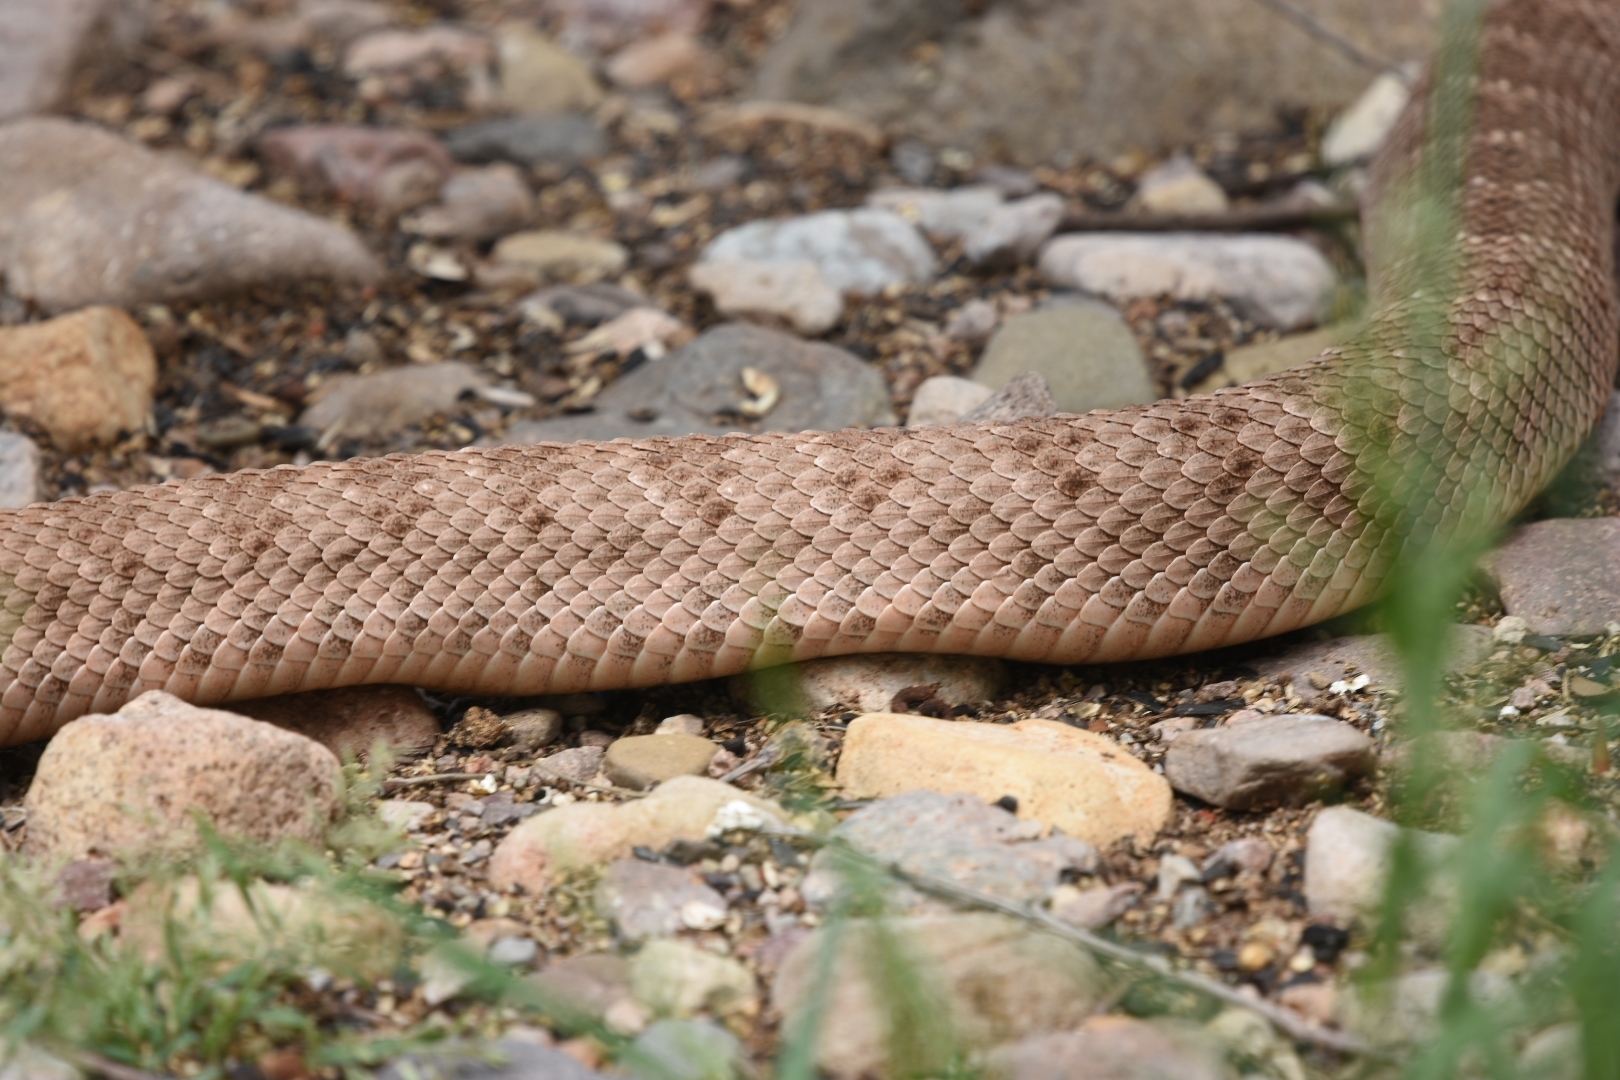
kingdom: Animalia
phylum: Chordata
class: Squamata
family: Viperidae
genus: Crotalus
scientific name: Crotalus atrox
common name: Western diamond-backed rattlesnake
